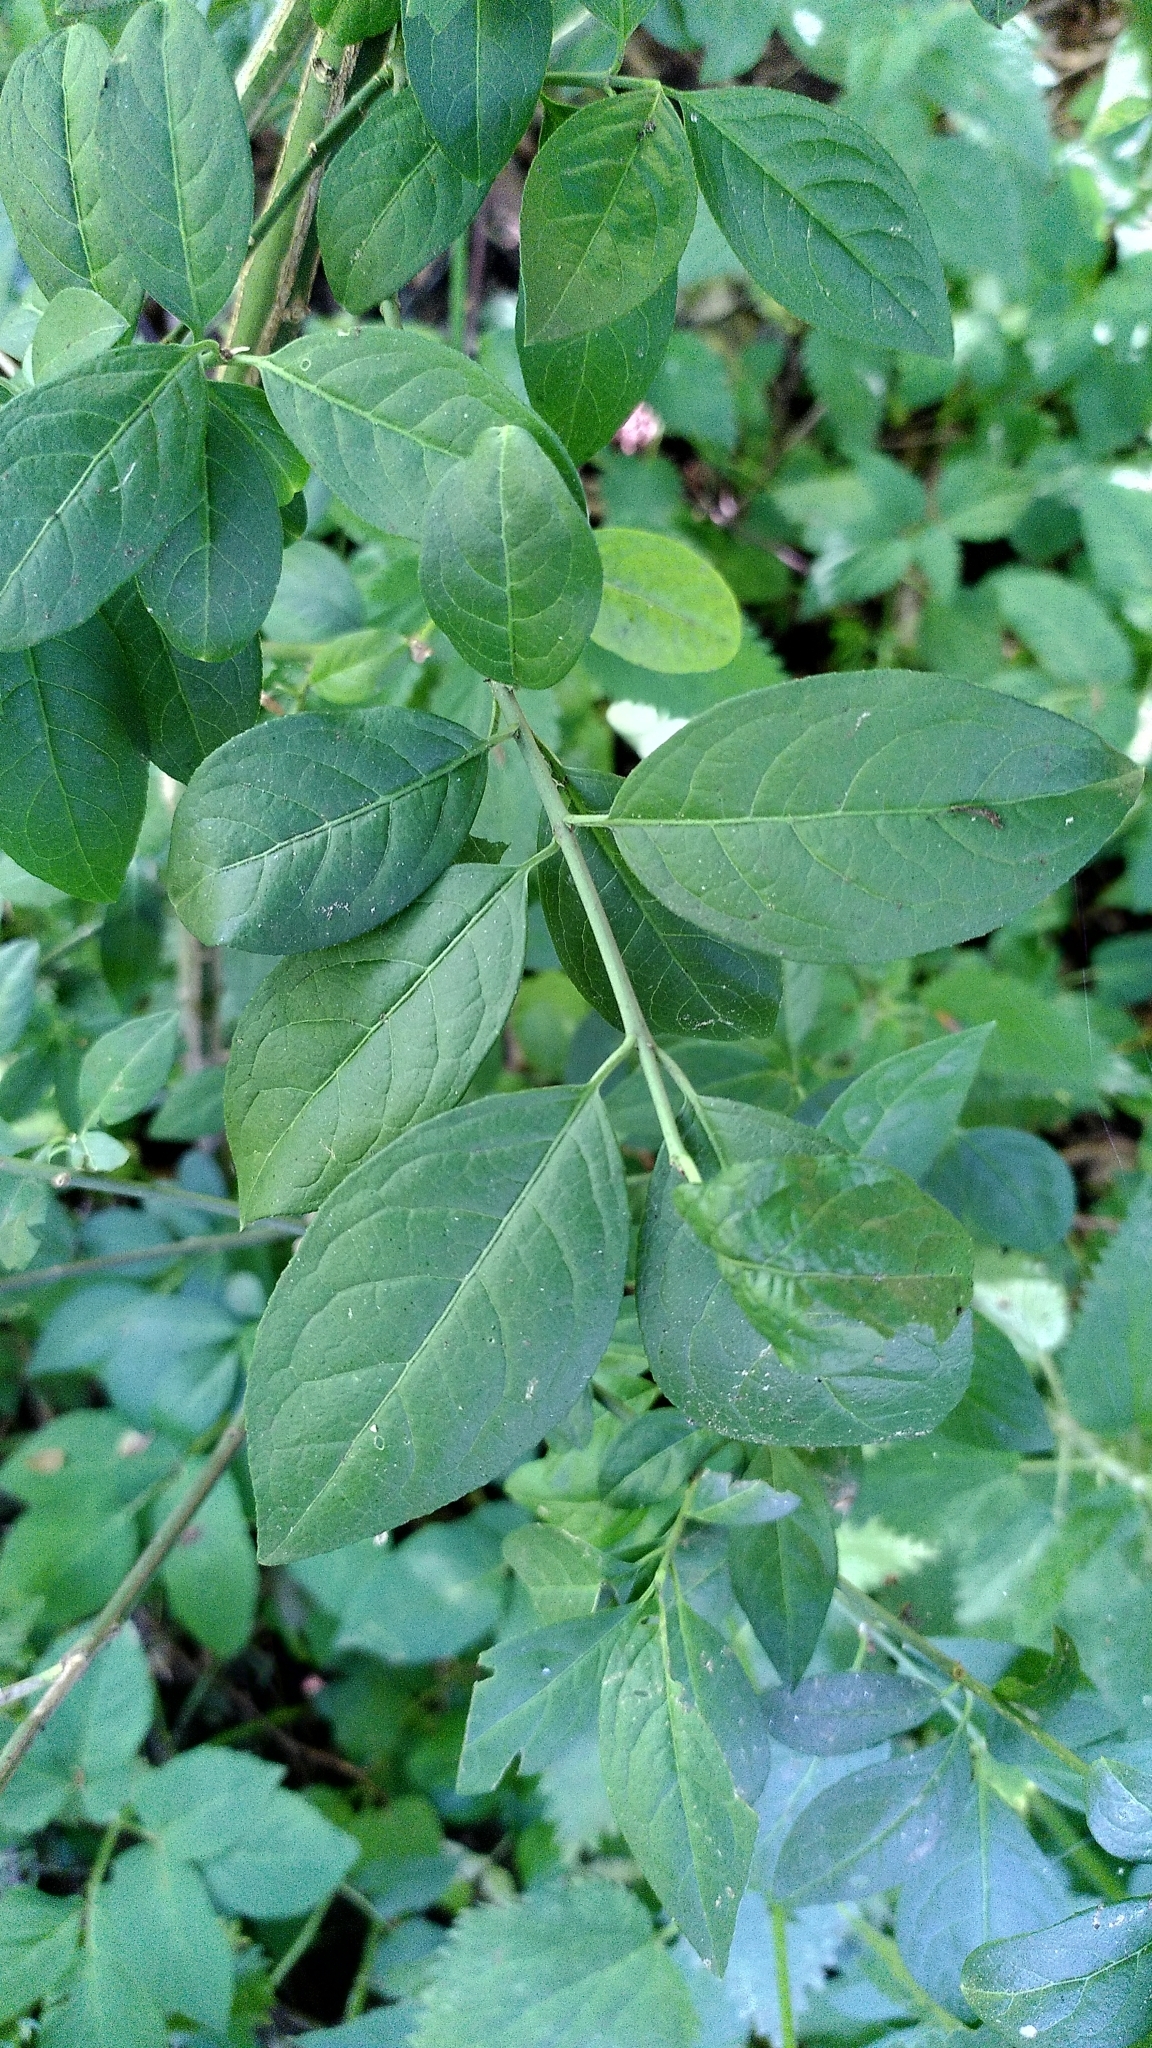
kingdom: Plantae
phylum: Tracheophyta
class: Magnoliopsida
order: Celastrales
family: Celastraceae
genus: Euonymus
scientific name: Euonymus europaeus
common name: Spindle
